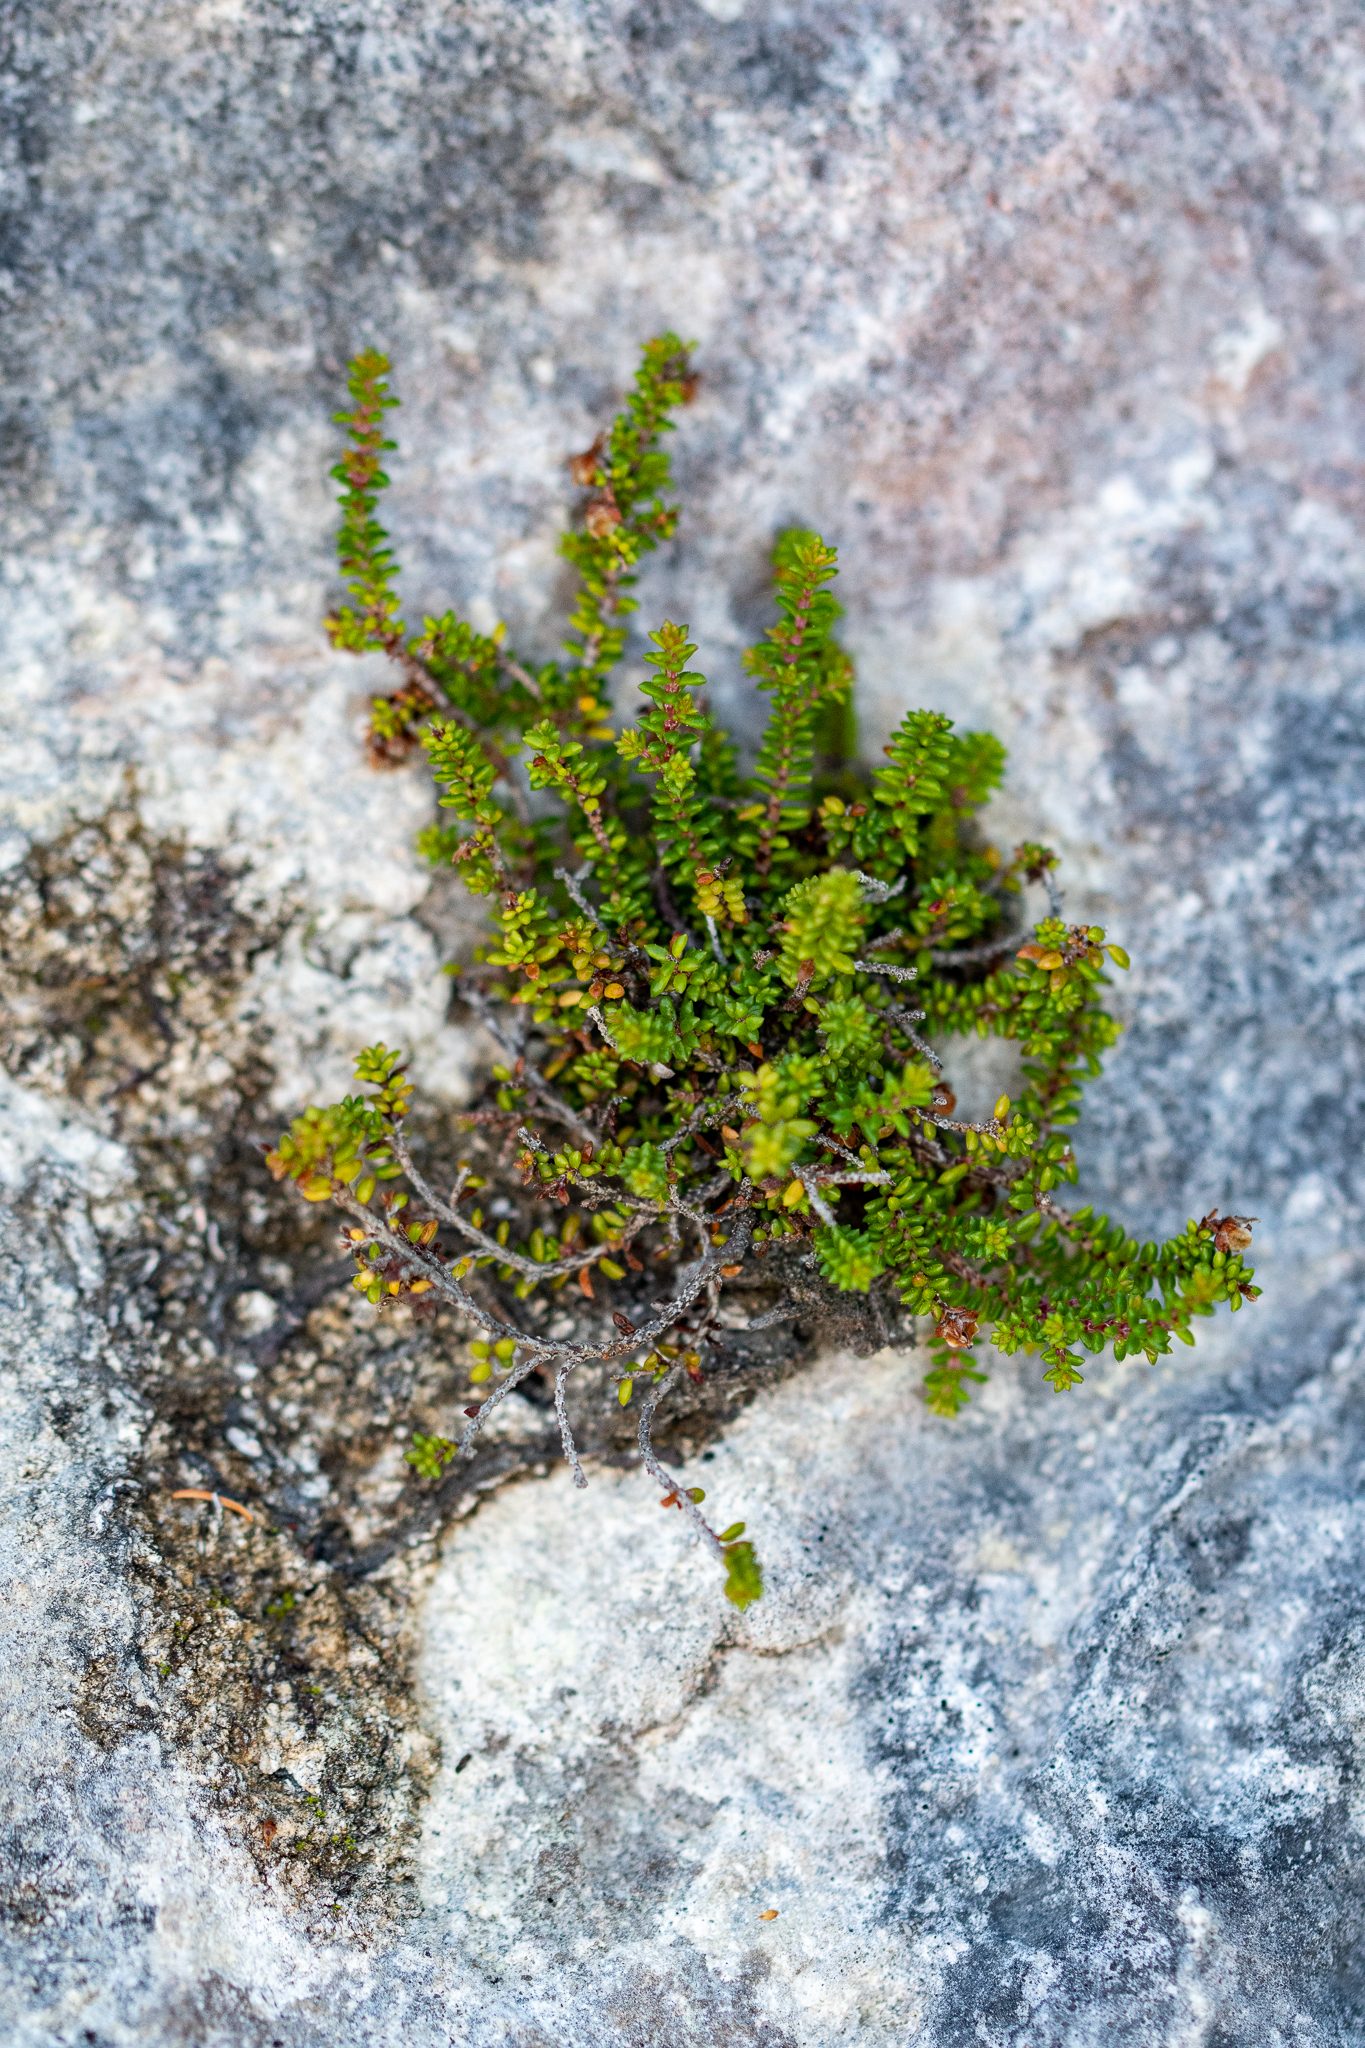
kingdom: Plantae
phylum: Tracheophyta
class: Magnoliopsida
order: Ericales
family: Ericaceae
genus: Erica
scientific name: Erica saxicola
